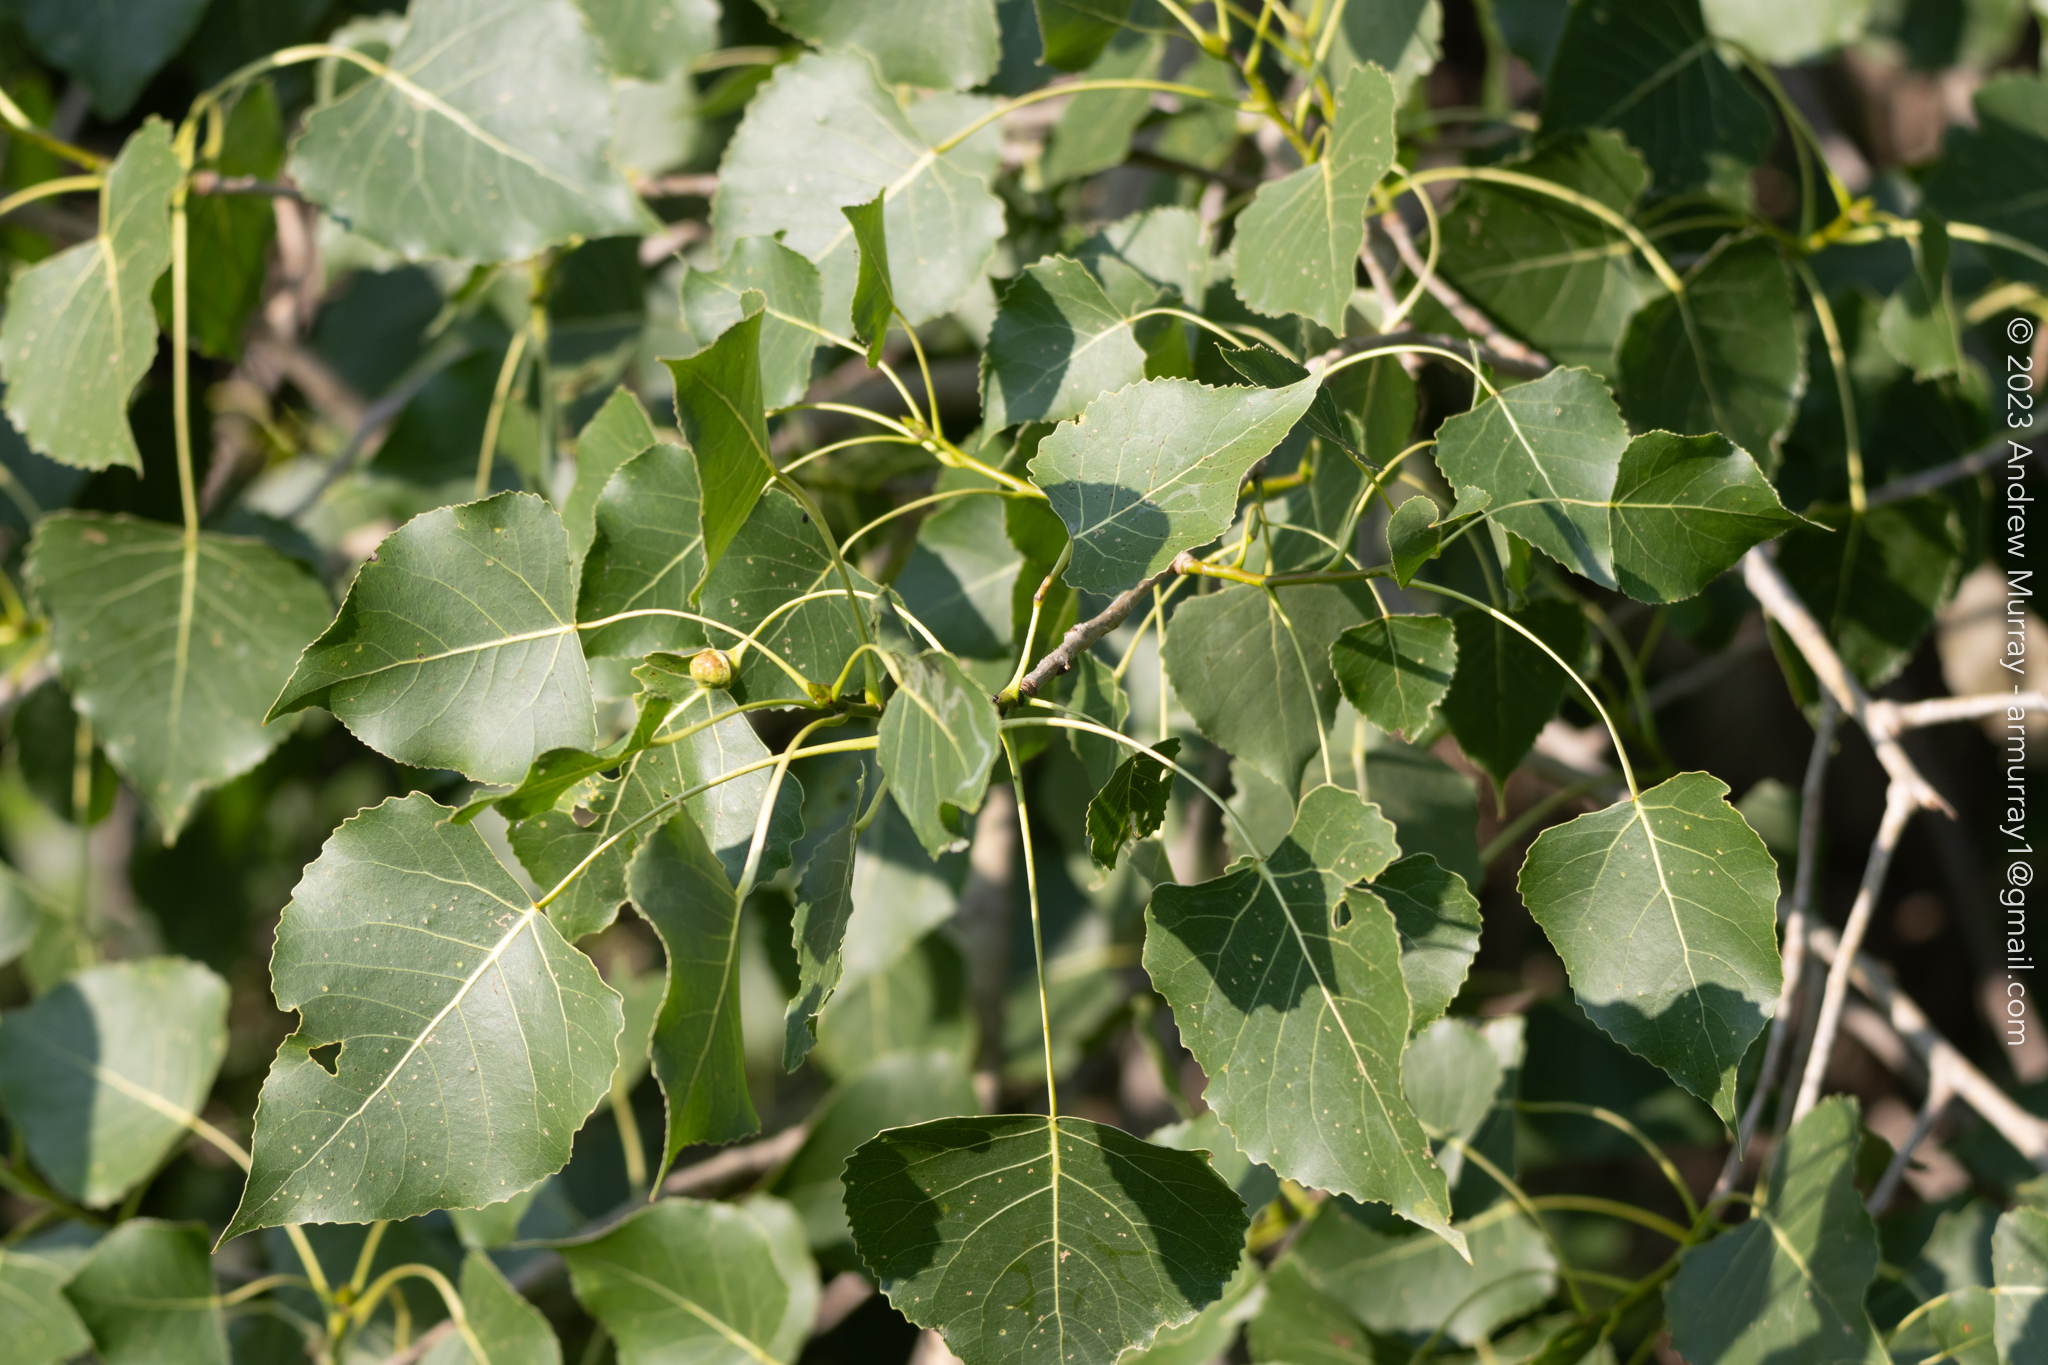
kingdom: Plantae
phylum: Tracheophyta
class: Magnoliopsida
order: Malpighiales
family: Salicaceae
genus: Populus
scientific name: Populus deltoides
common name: Eastern cottonwood
